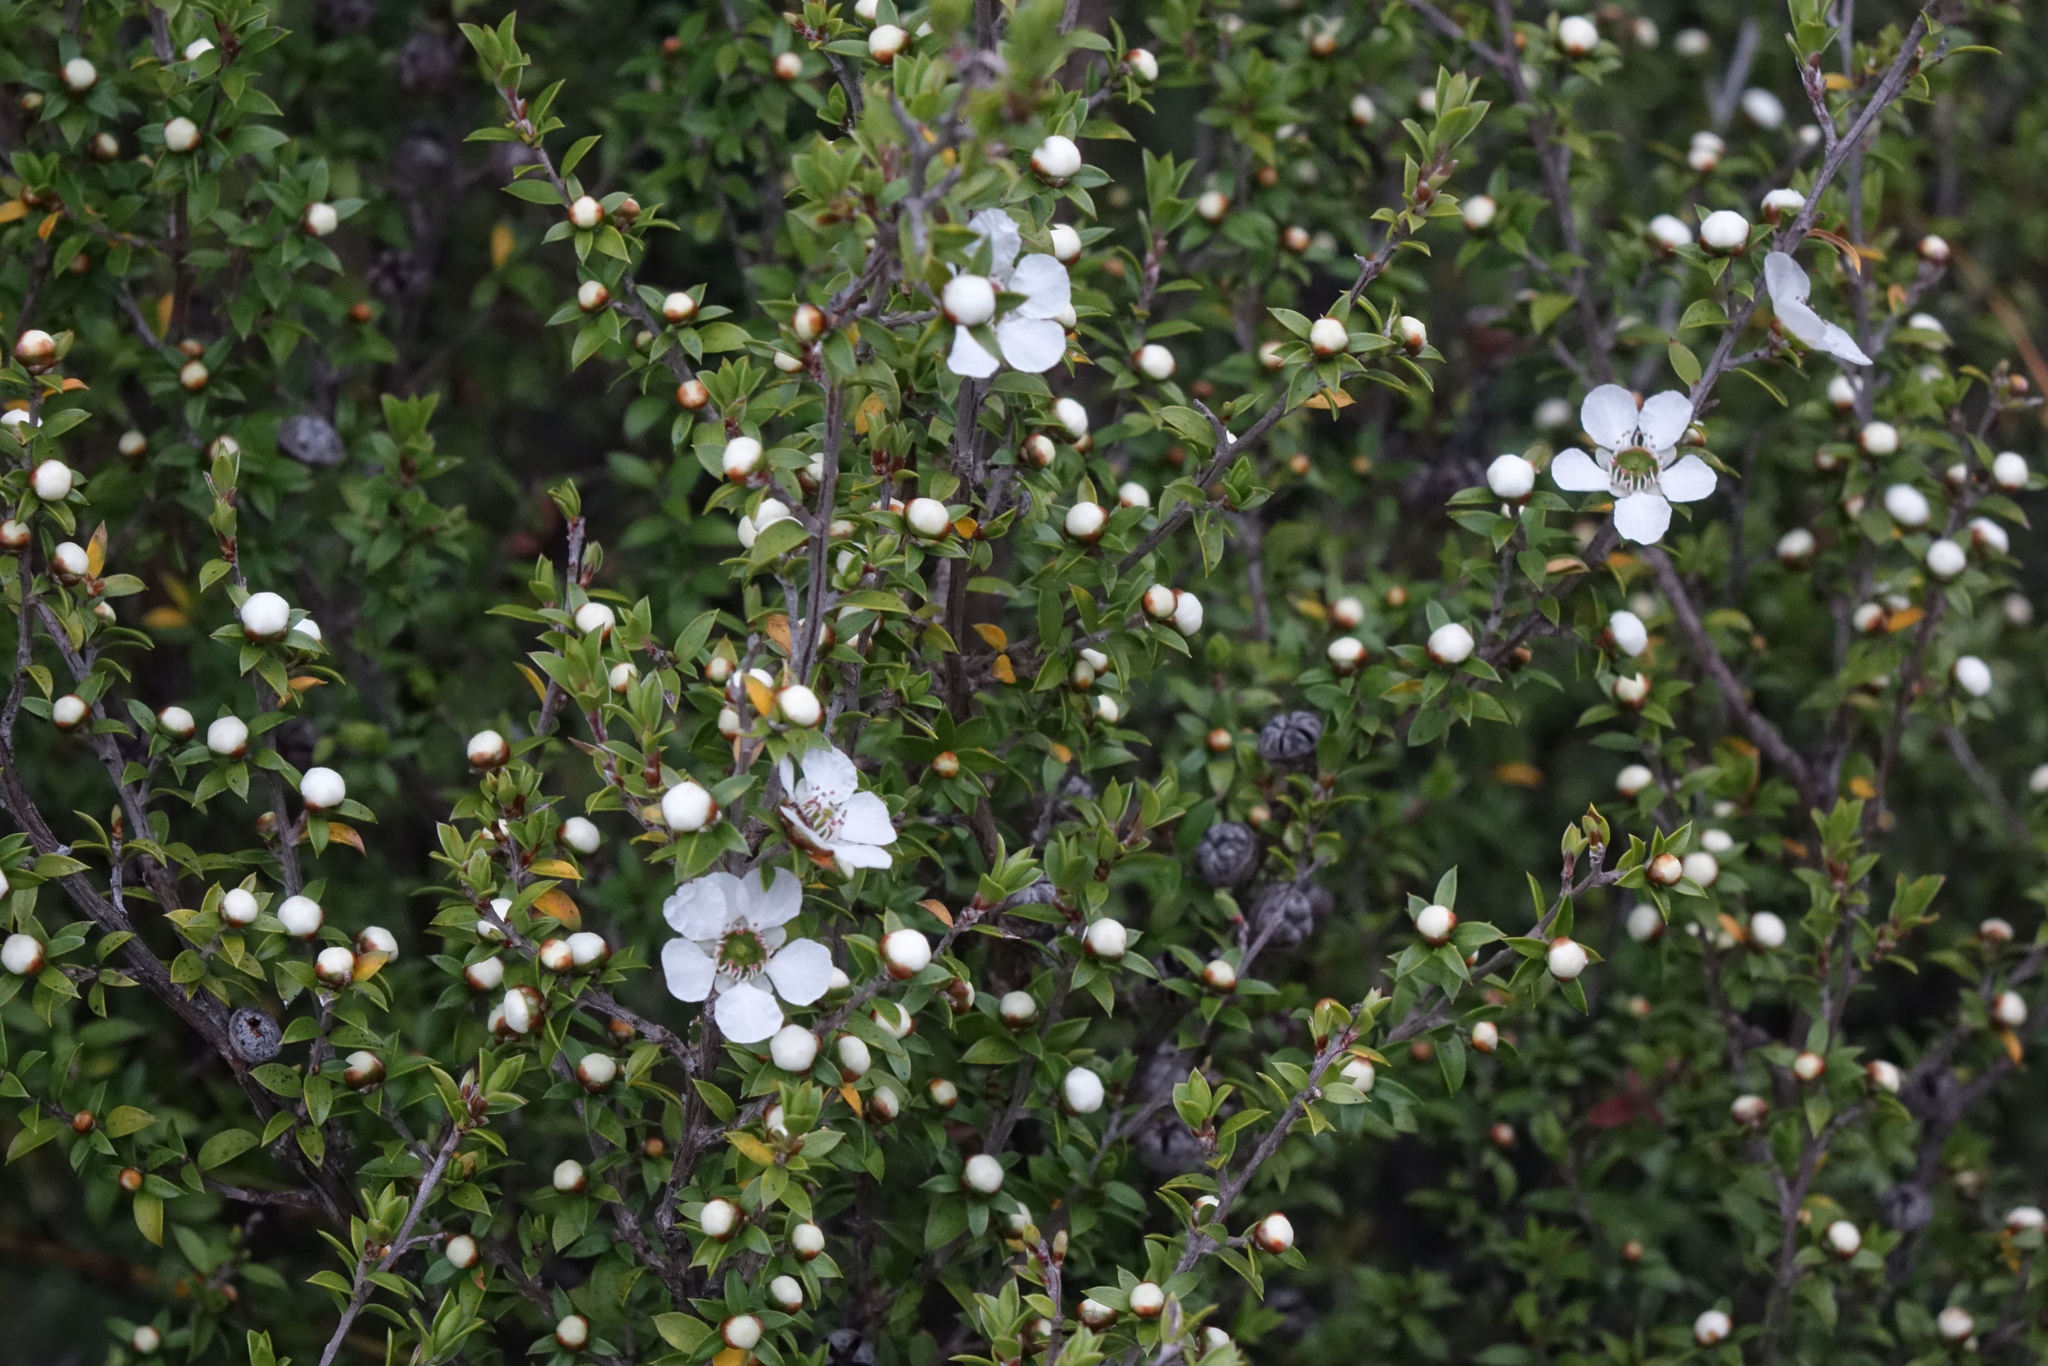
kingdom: Plantae
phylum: Tracheophyta
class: Magnoliopsida
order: Myrtales
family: Myrtaceae
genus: Leptospermum
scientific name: Leptospermum scoparium
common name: Broom tea-tree
